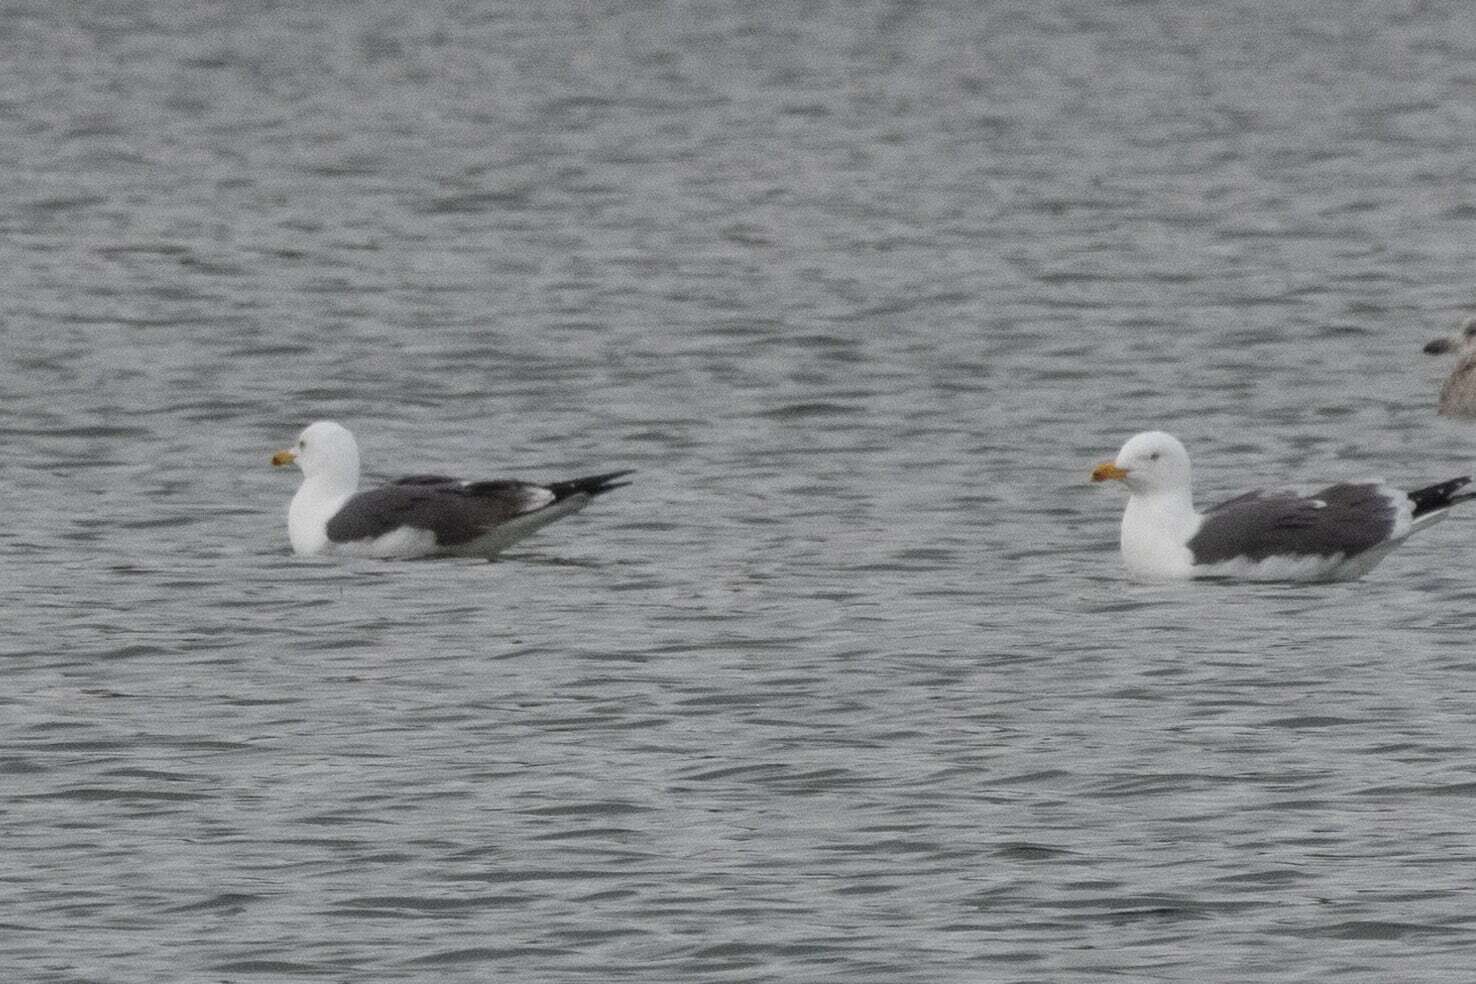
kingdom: Animalia
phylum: Chordata
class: Aves
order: Charadriiformes
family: Laridae
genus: Larus
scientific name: Larus fuscus
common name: Lesser black-backed gull
